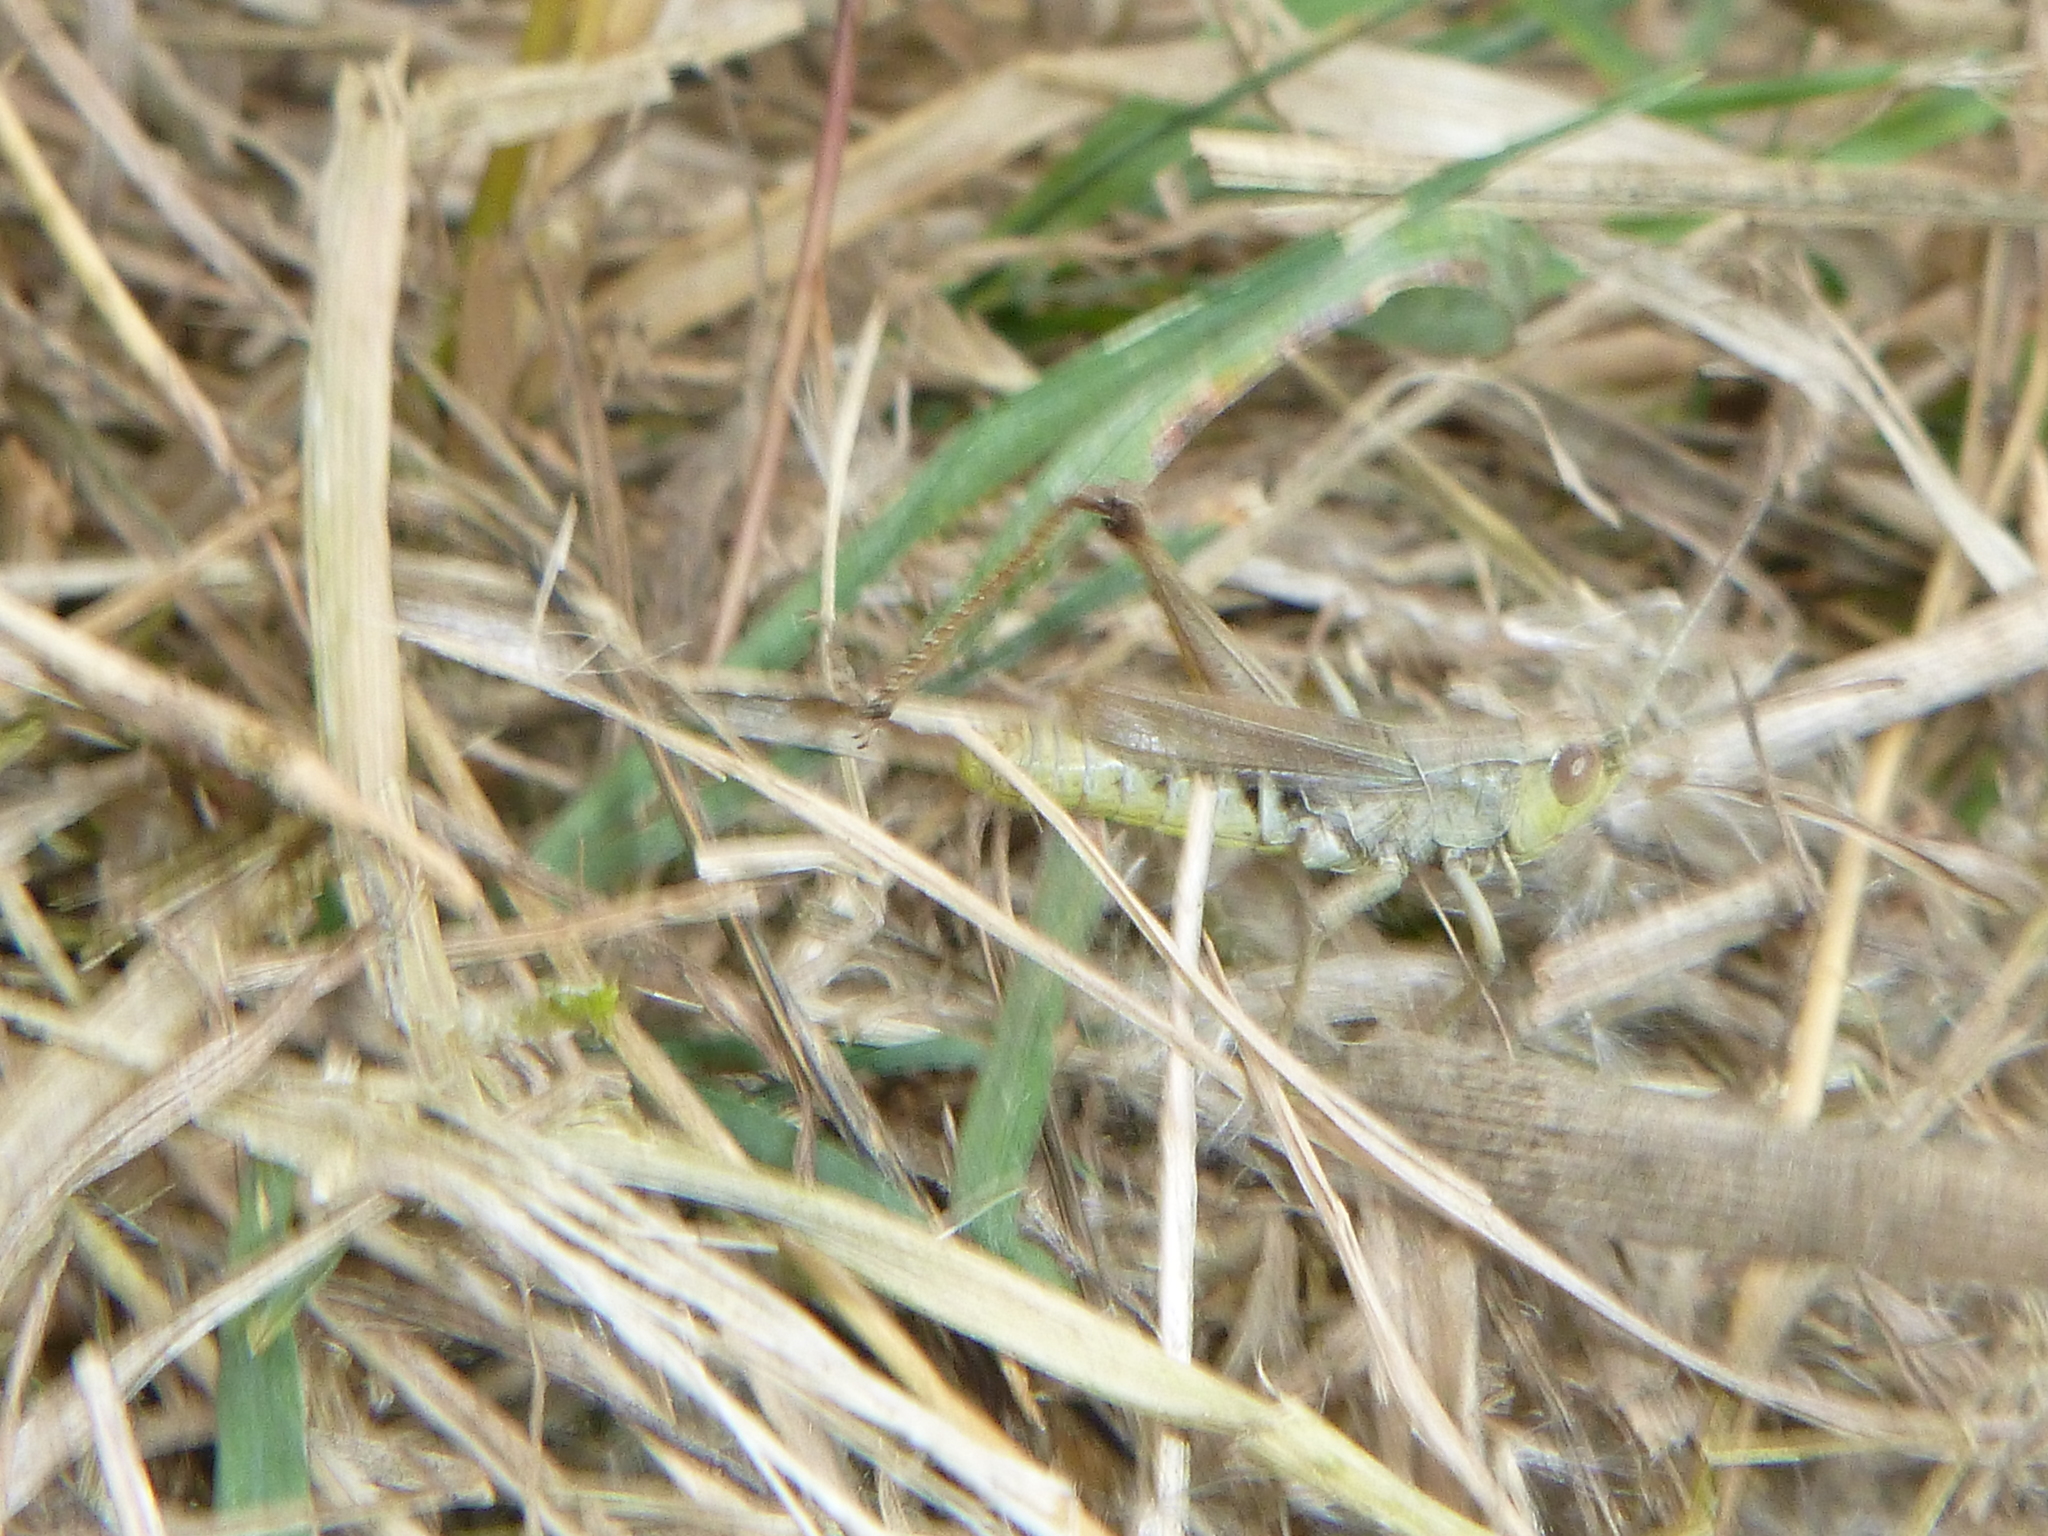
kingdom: Animalia
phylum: Arthropoda
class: Insecta
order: Orthoptera
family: Acrididae
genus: Pseudochorthippus
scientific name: Pseudochorthippus parallelus
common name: Meadow grasshopper
